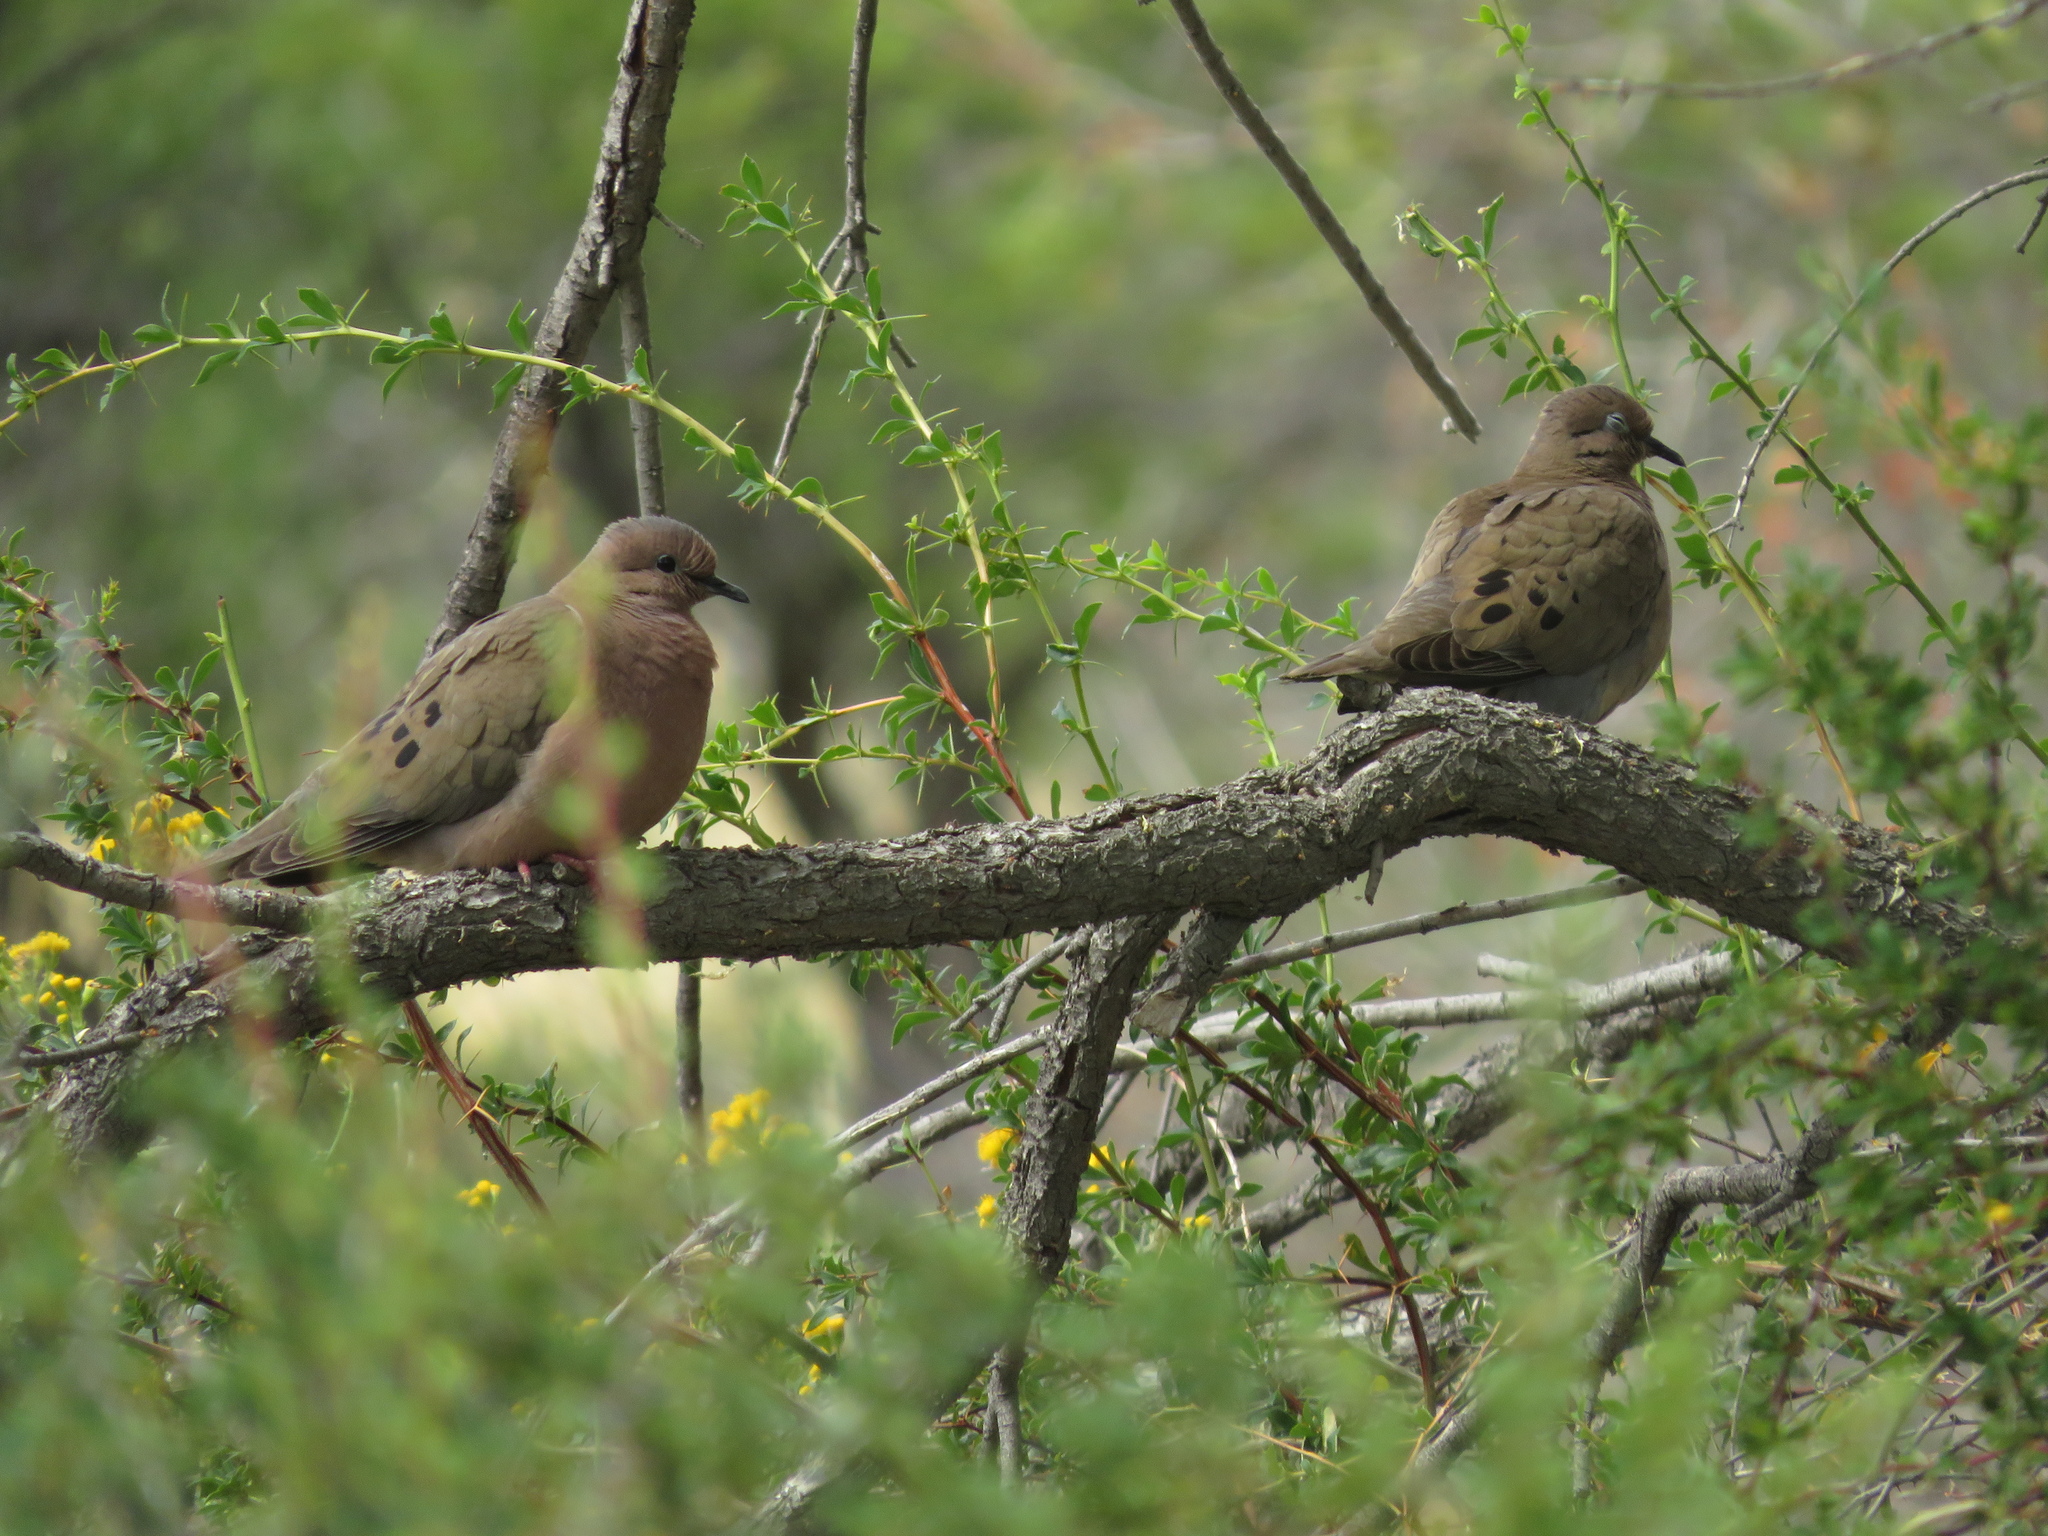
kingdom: Animalia
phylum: Chordata
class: Aves
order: Columbiformes
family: Columbidae
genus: Zenaida
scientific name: Zenaida auriculata
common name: Eared dove
